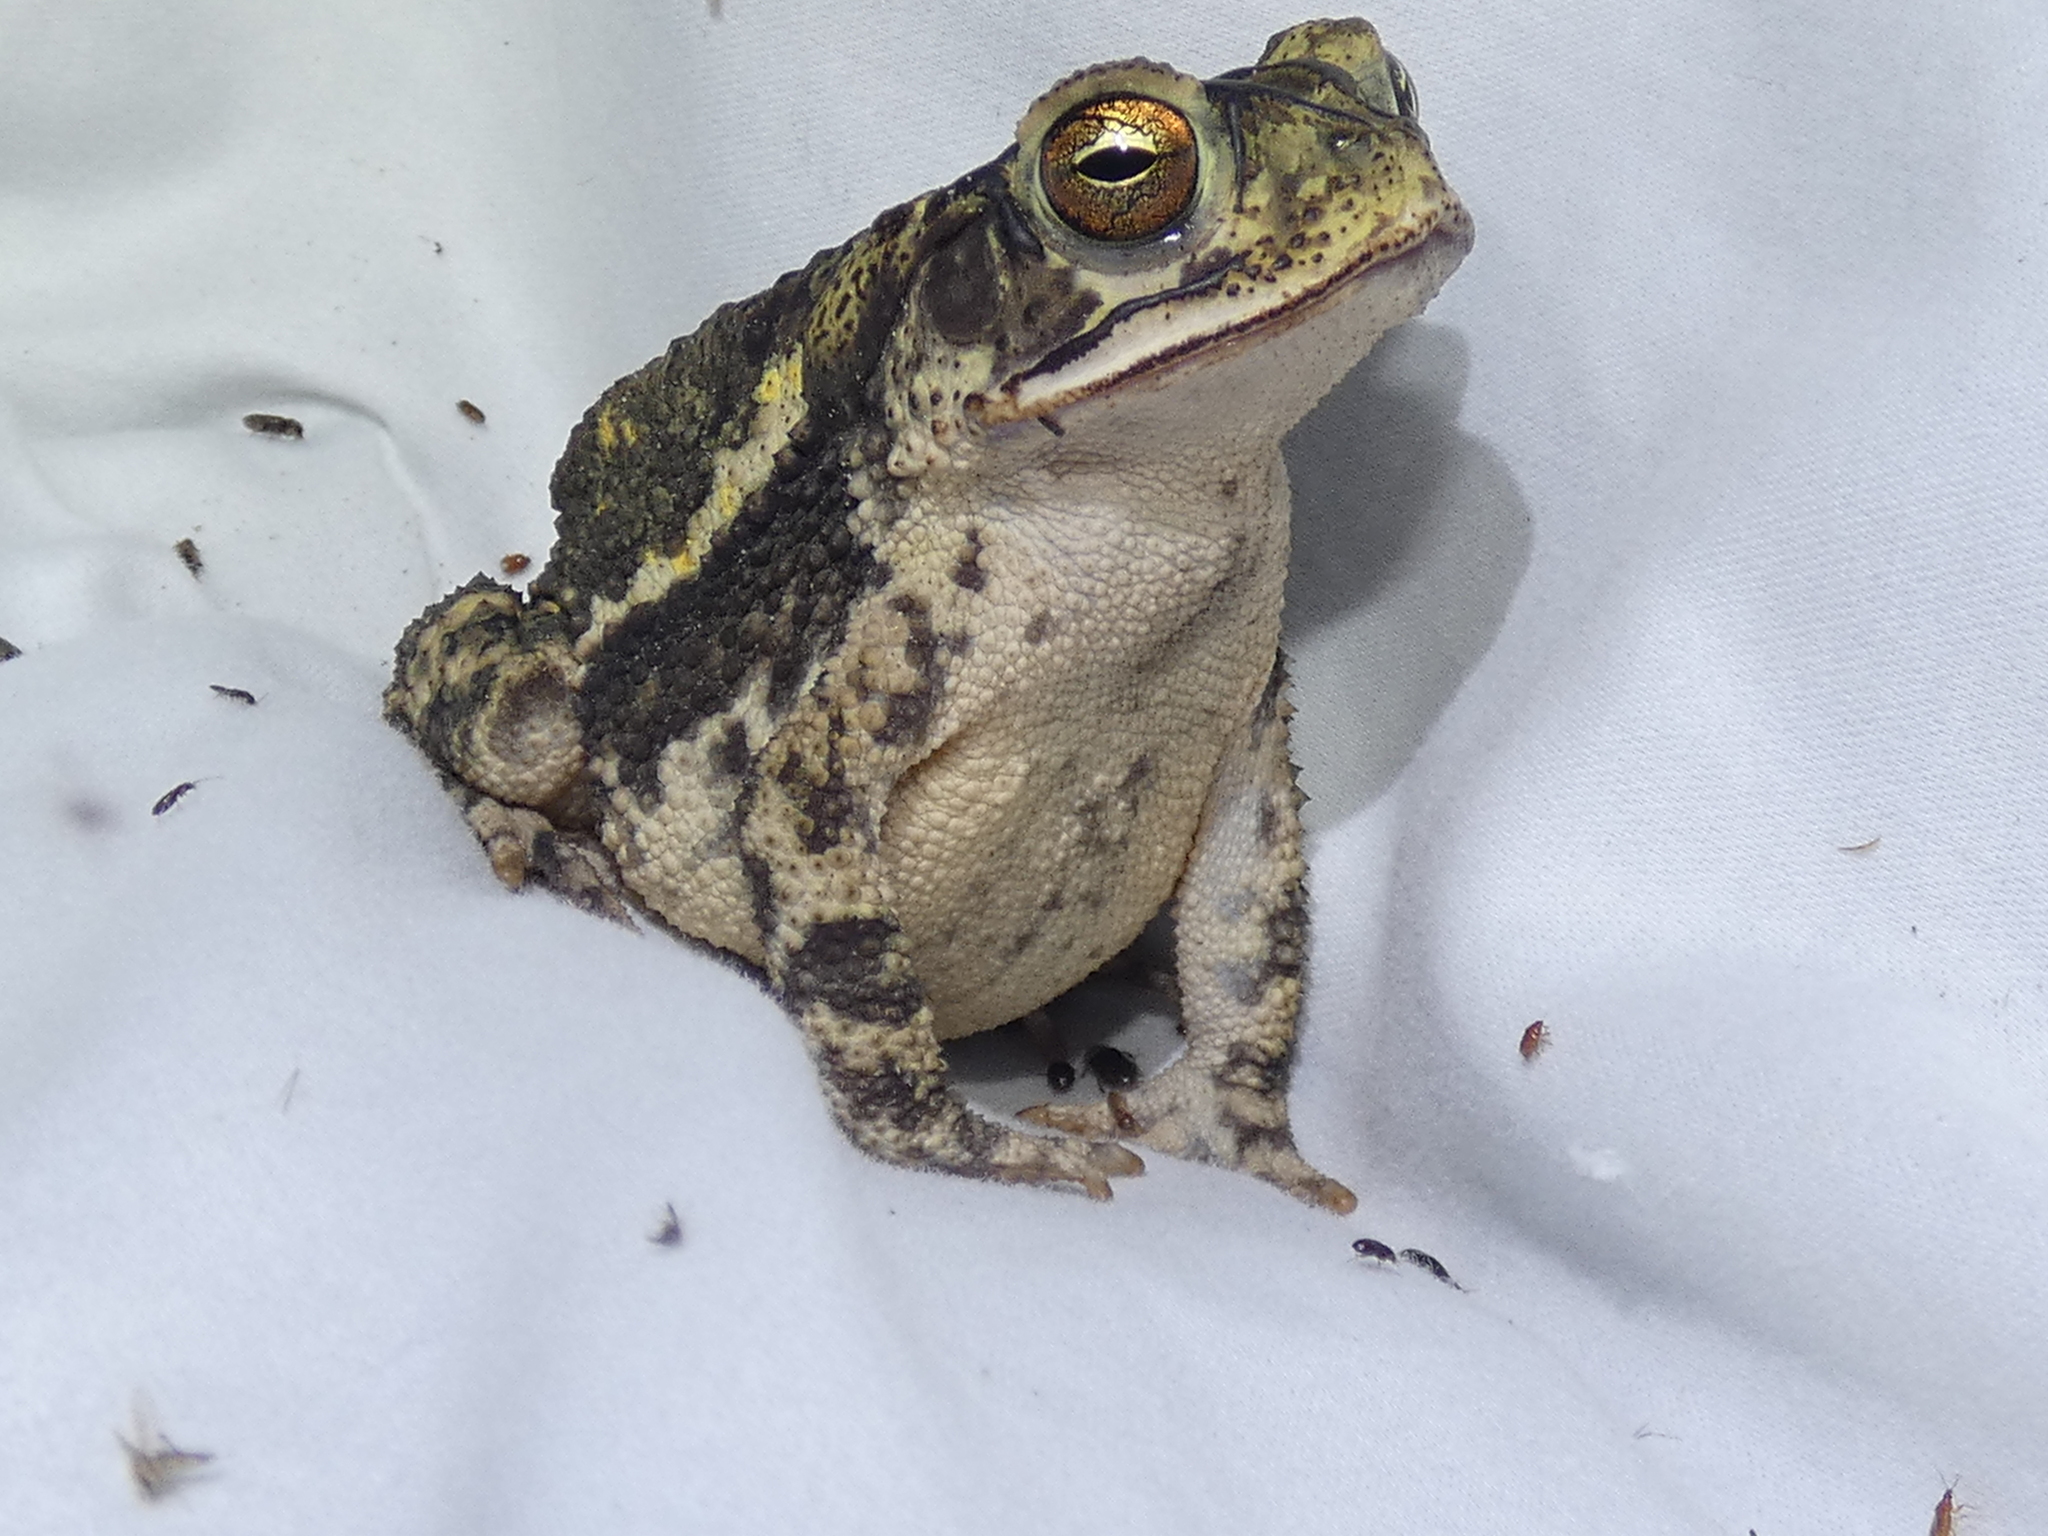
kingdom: Animalia
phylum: Chordata
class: Amphibia
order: Anura
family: Bufonidae
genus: Incilius
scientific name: Incilius nebulifer
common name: Gulf coast toad
